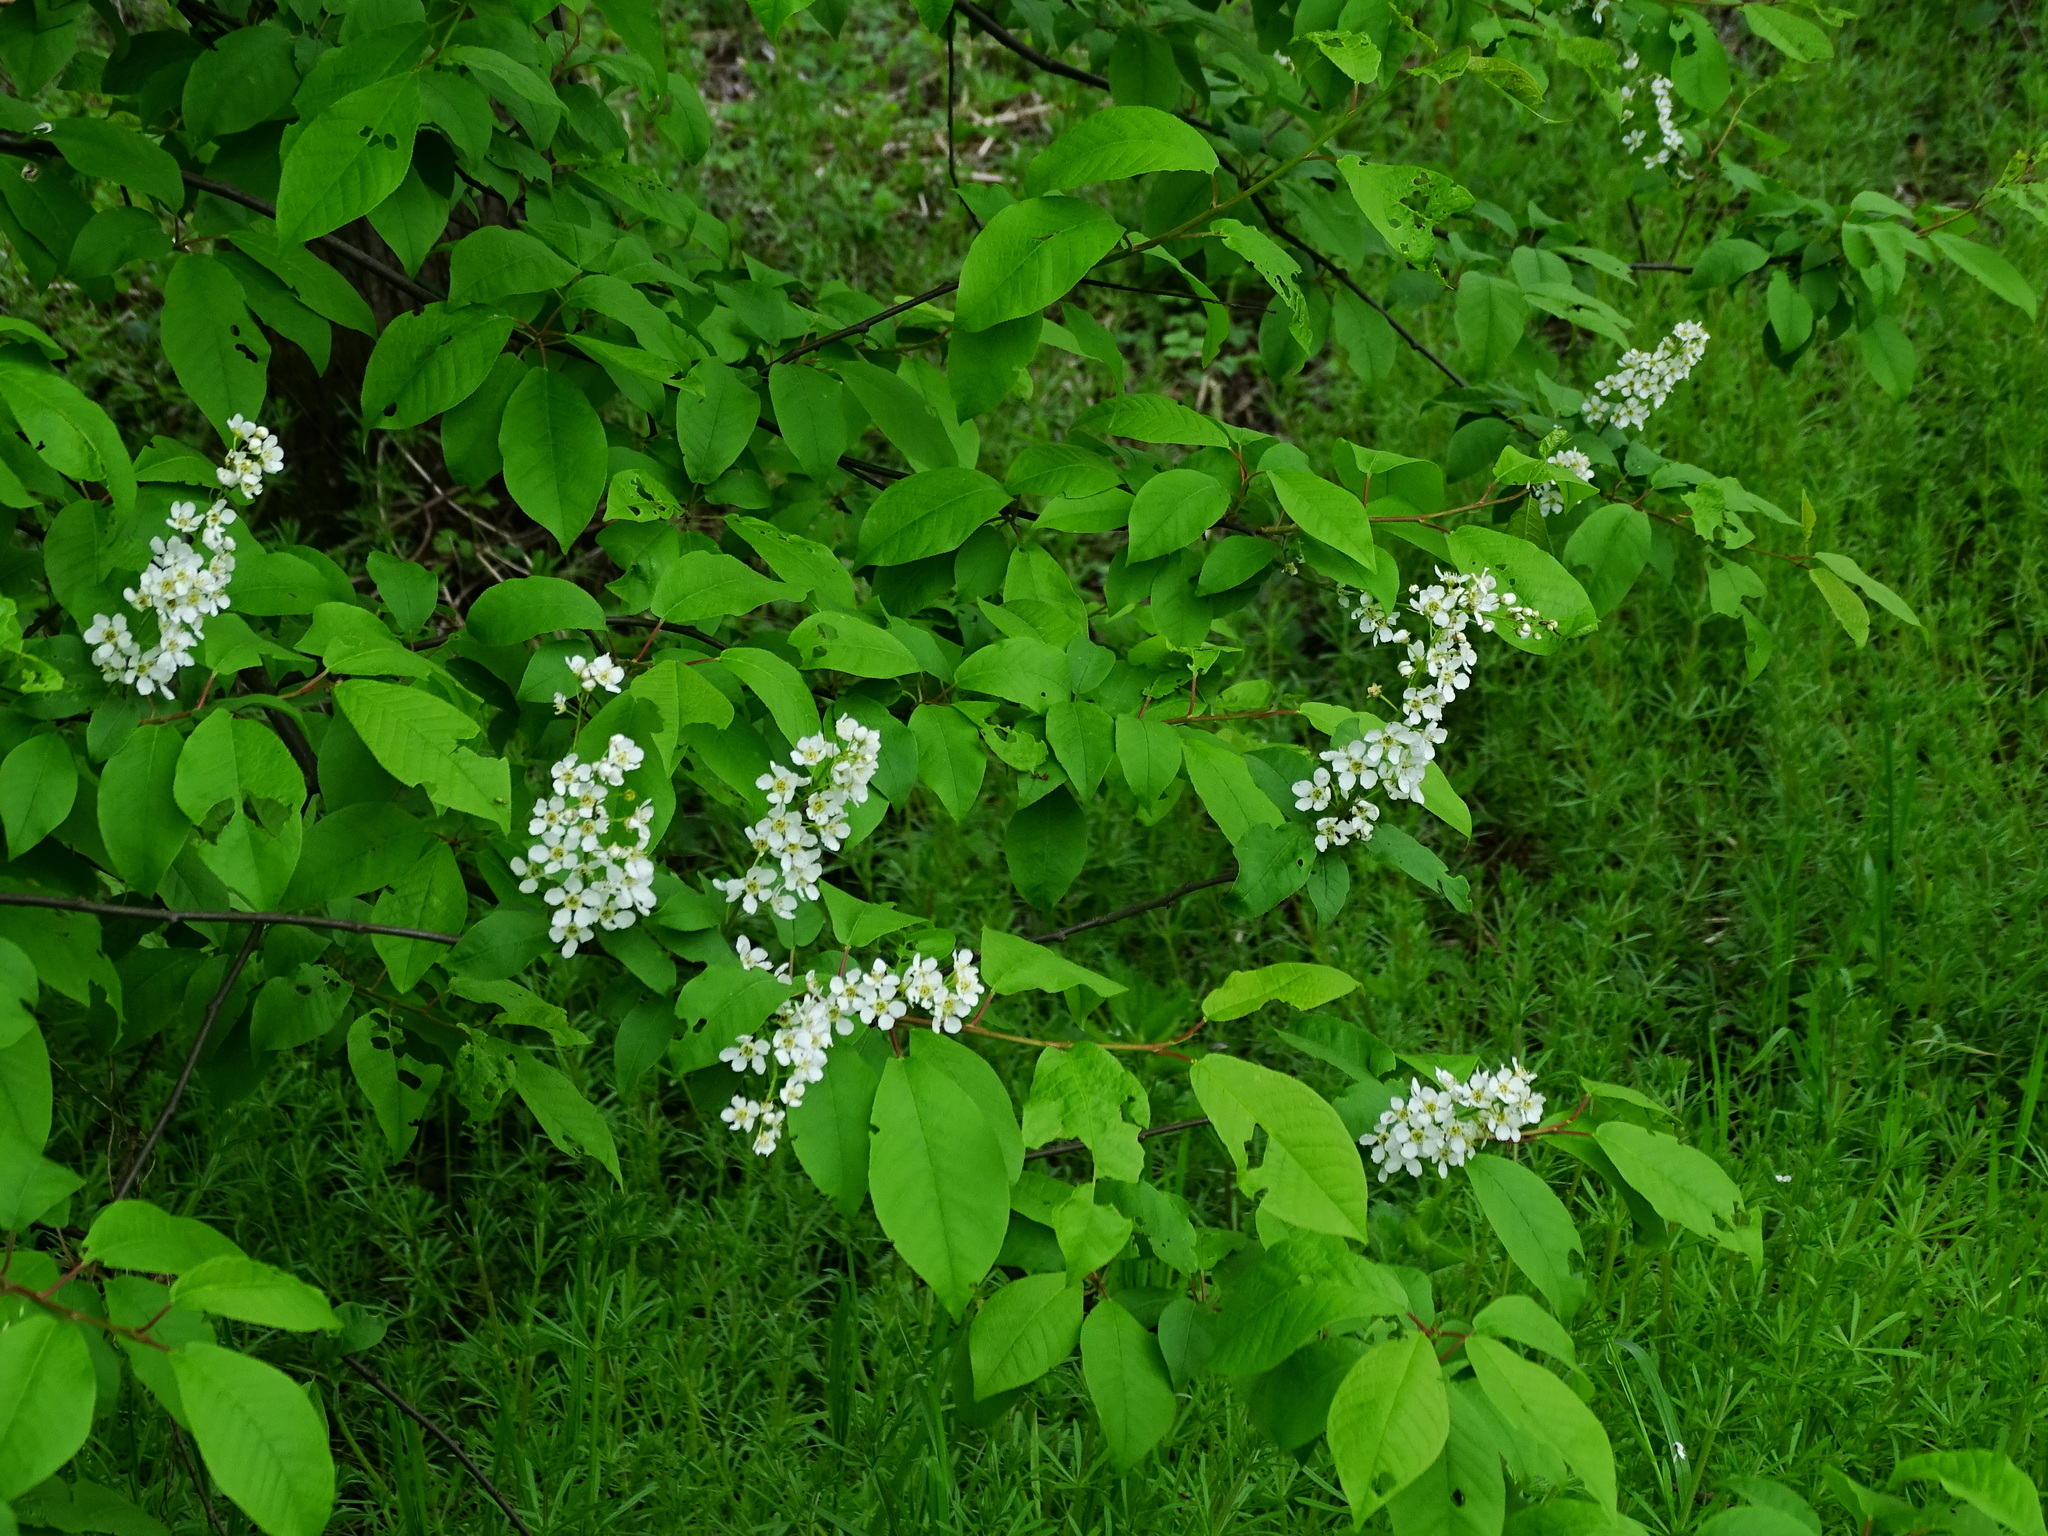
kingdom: Plantae
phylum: Tracheophyta
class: Magnoliopsida
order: Rosales
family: Rosaceae
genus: Prunus
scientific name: Prunus padus
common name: Bird cherry
